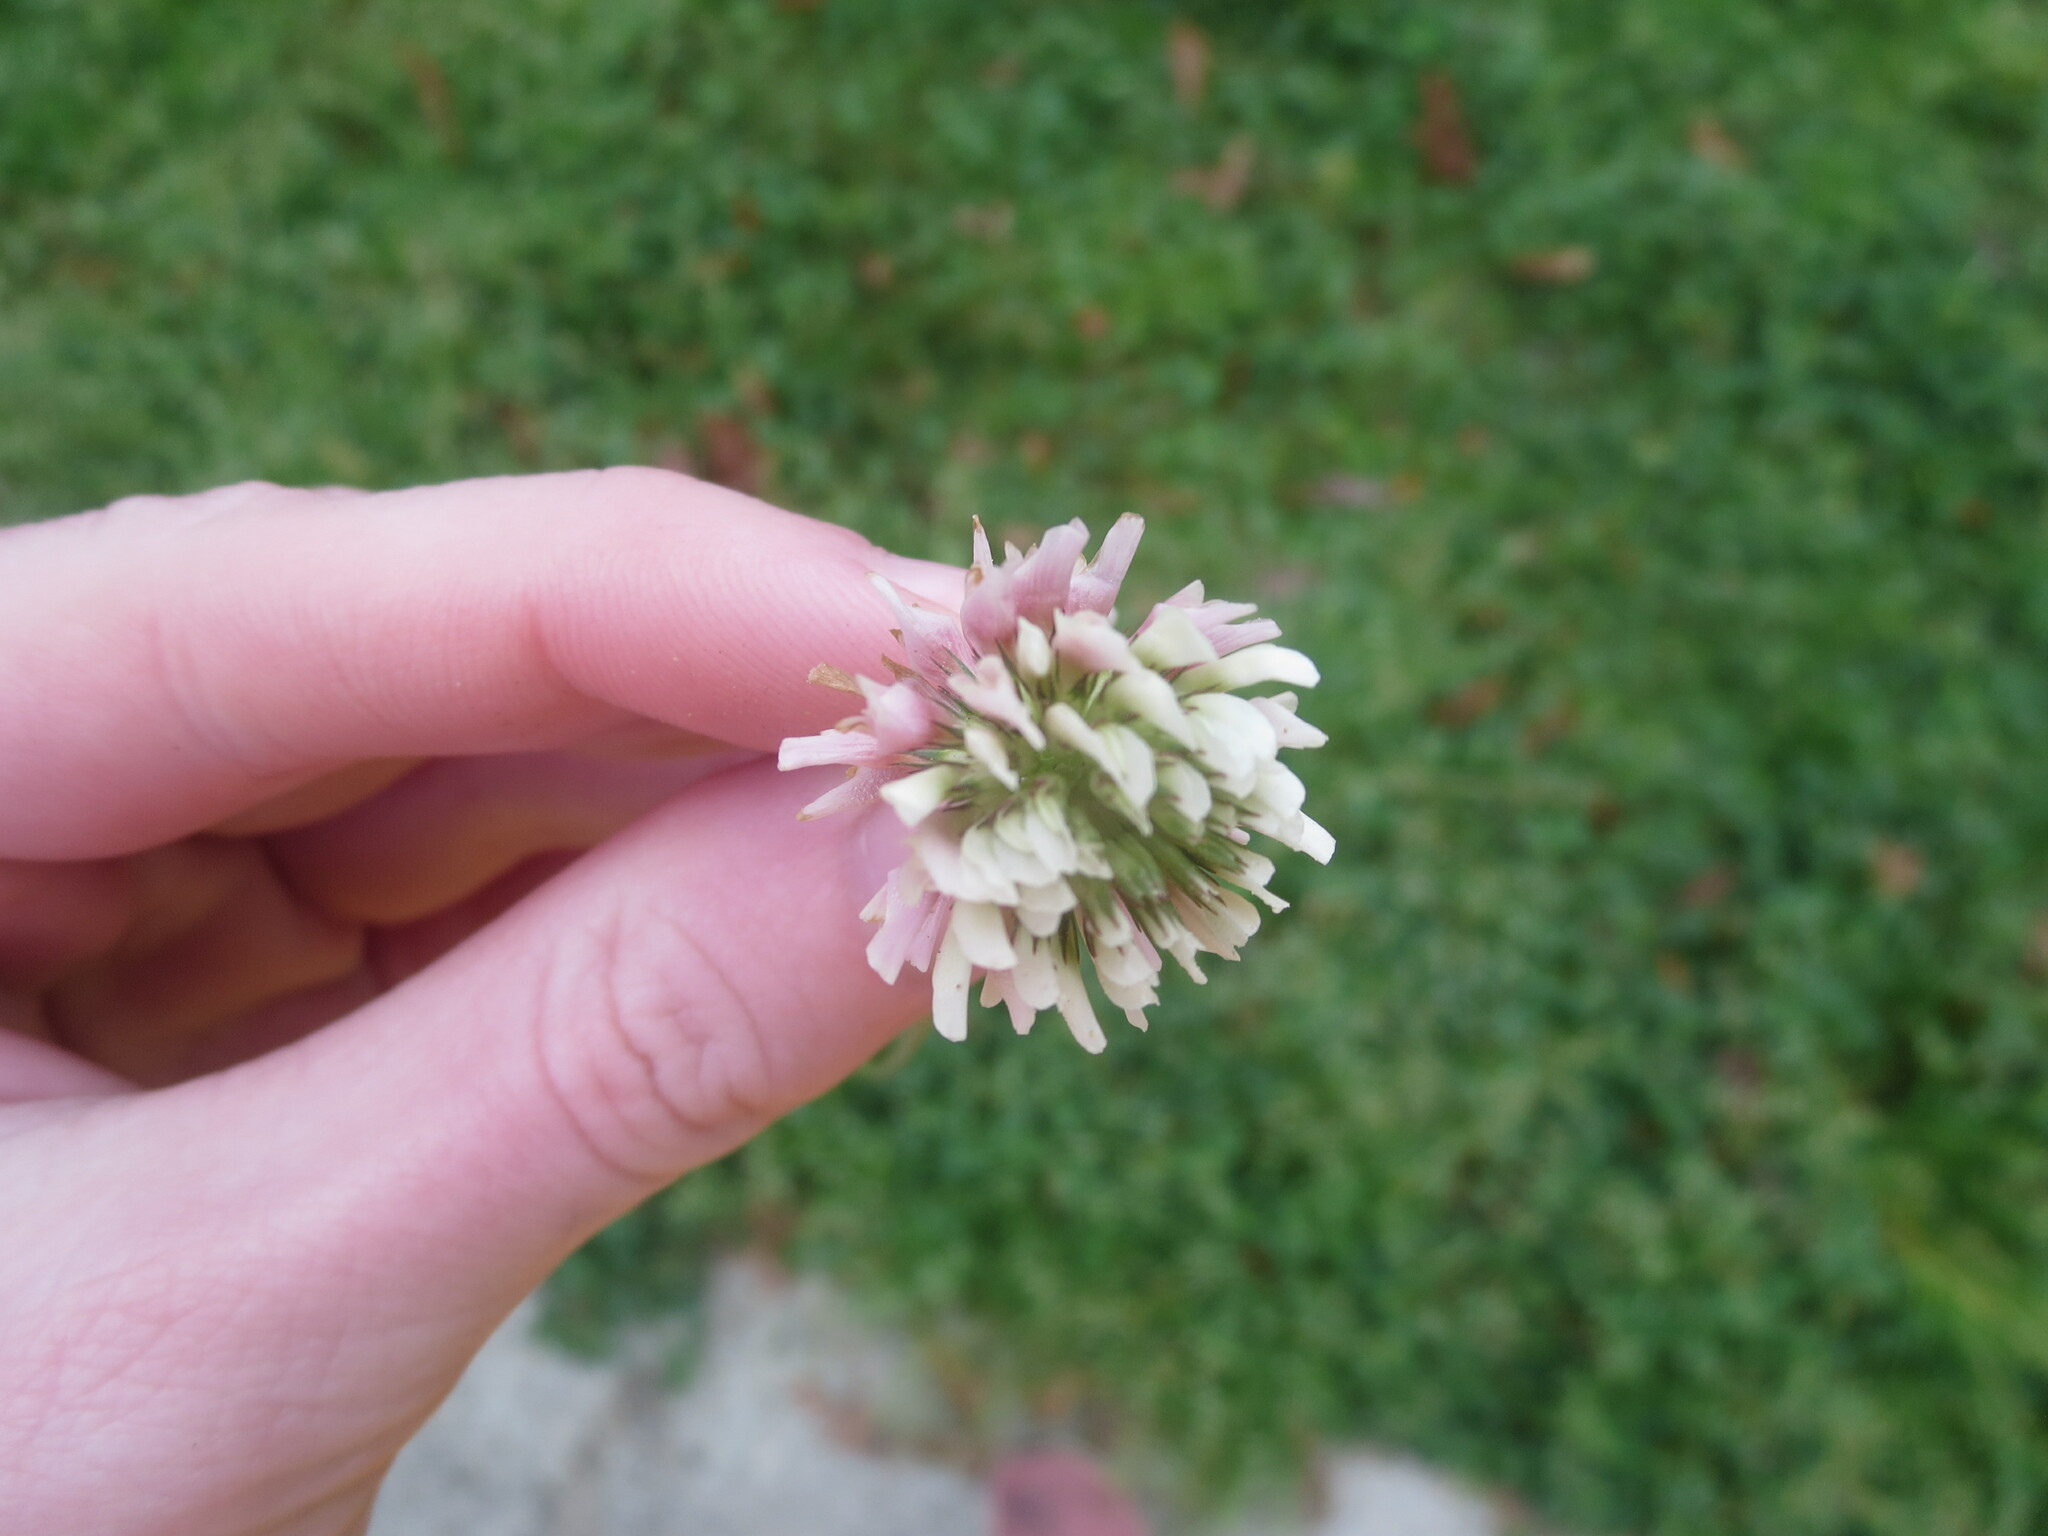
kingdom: Plantae
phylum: Tracheophyta
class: Magnoliopsida
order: Fabales
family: Fabaceae
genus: Trifolium
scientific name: Trifolium repens
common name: White clover
